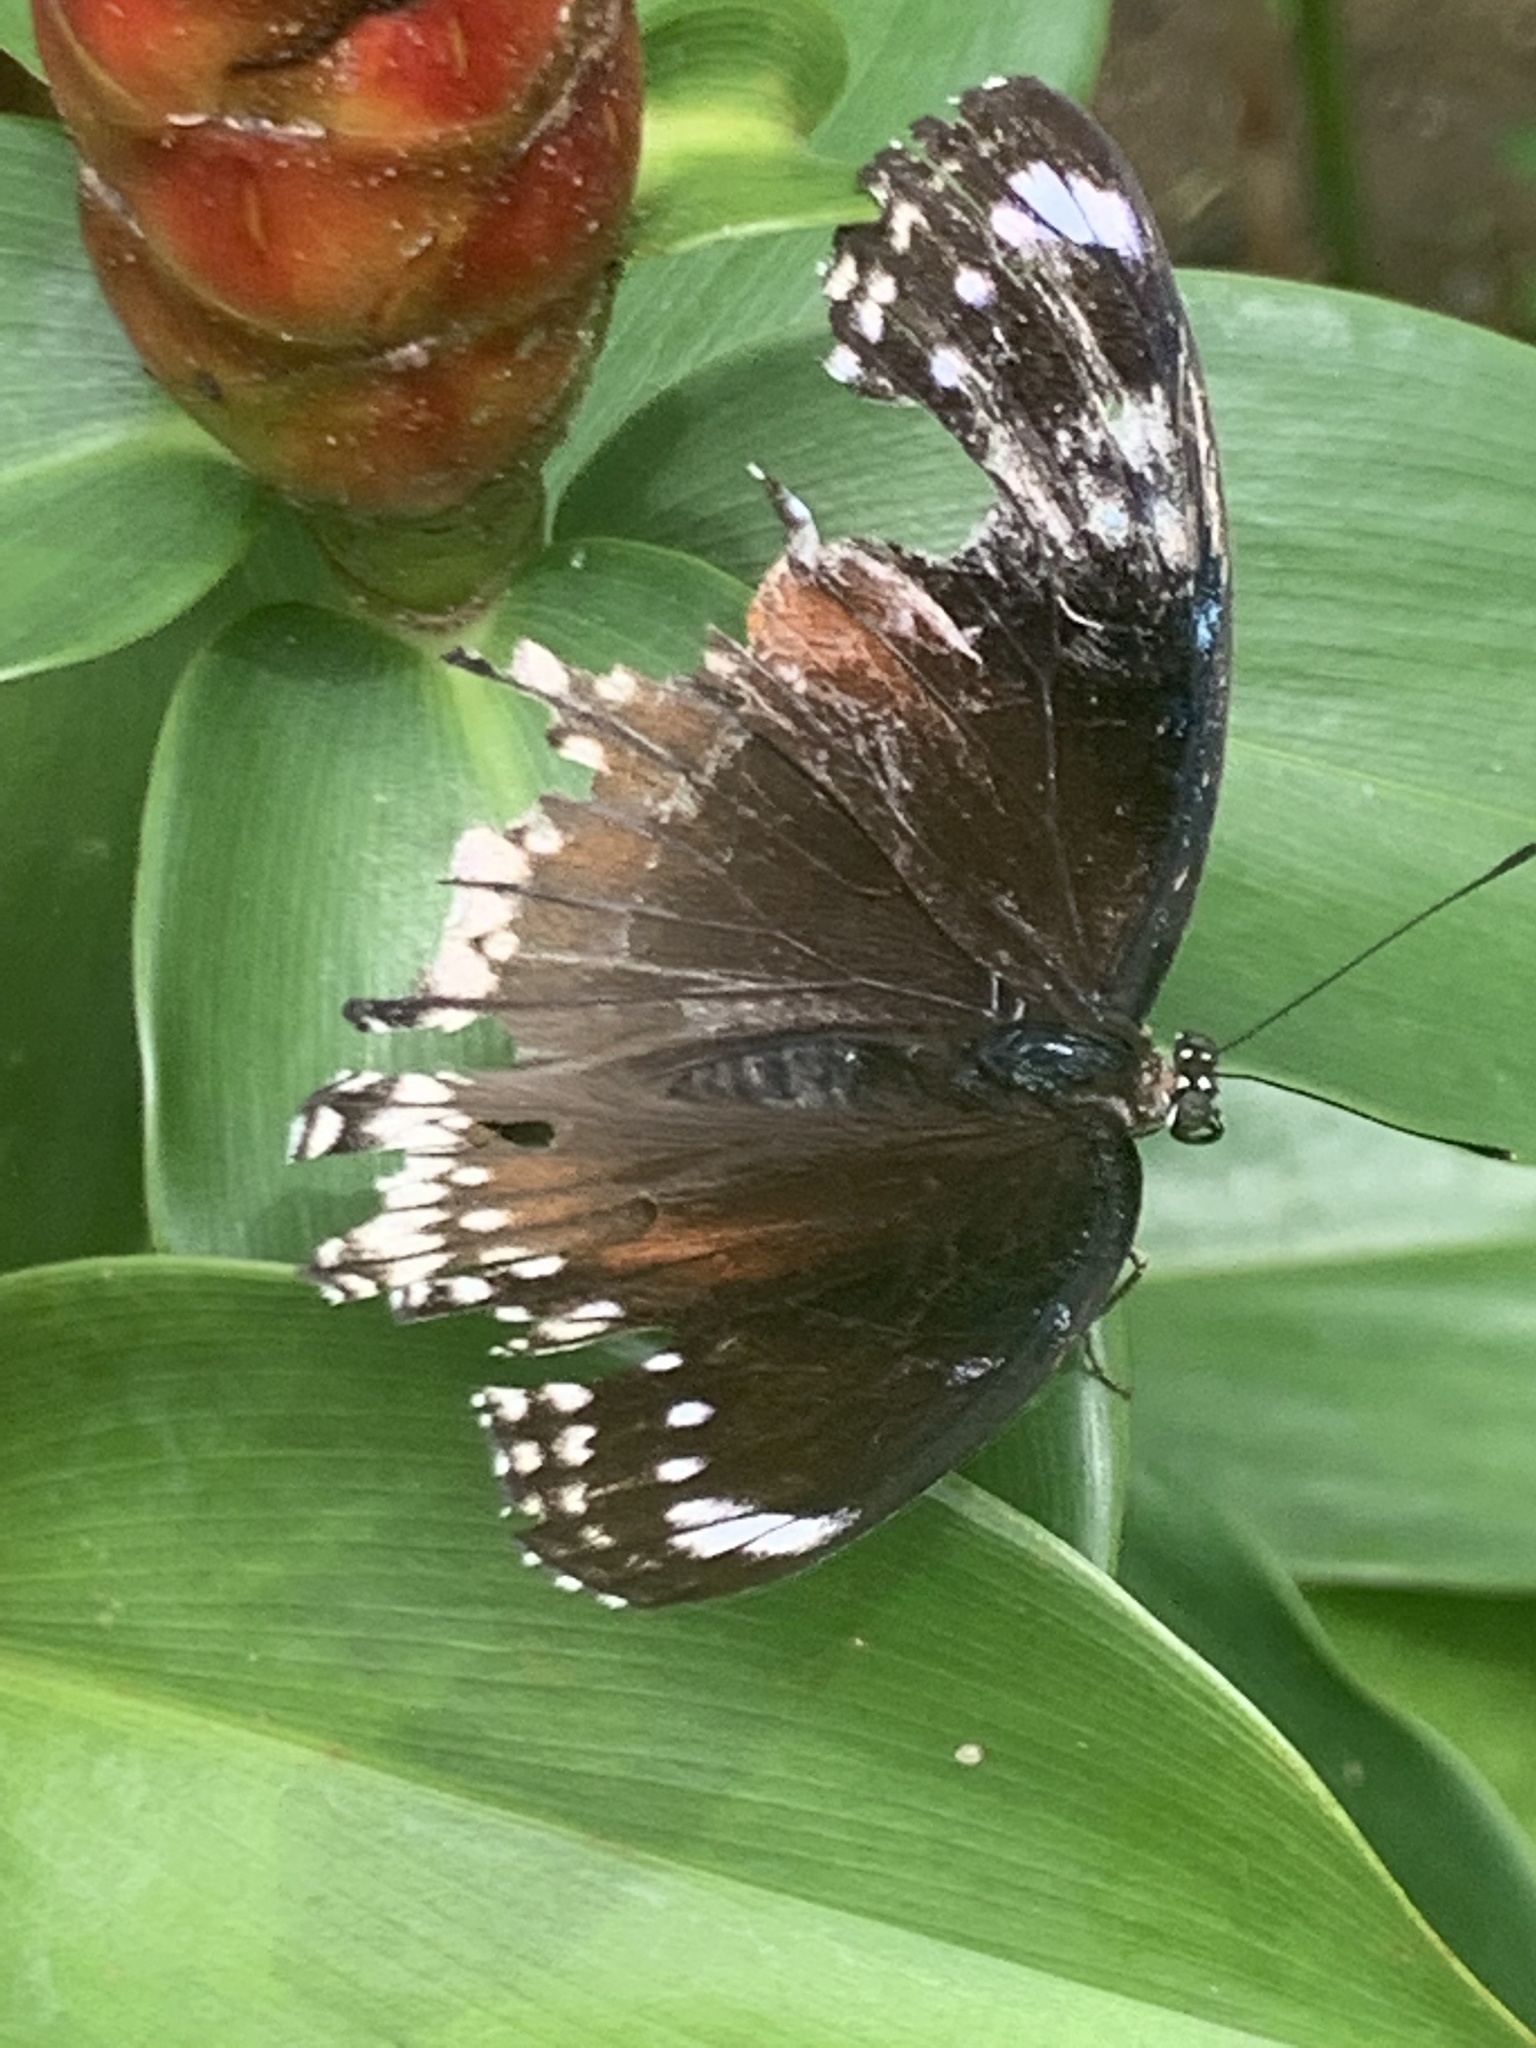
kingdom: Animalia
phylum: Arthropoda
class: Insecta
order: Lepidoptera
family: Nymphalidae
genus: Hypolimnas
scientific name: Hypolimnas bolina
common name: Great eggfly
